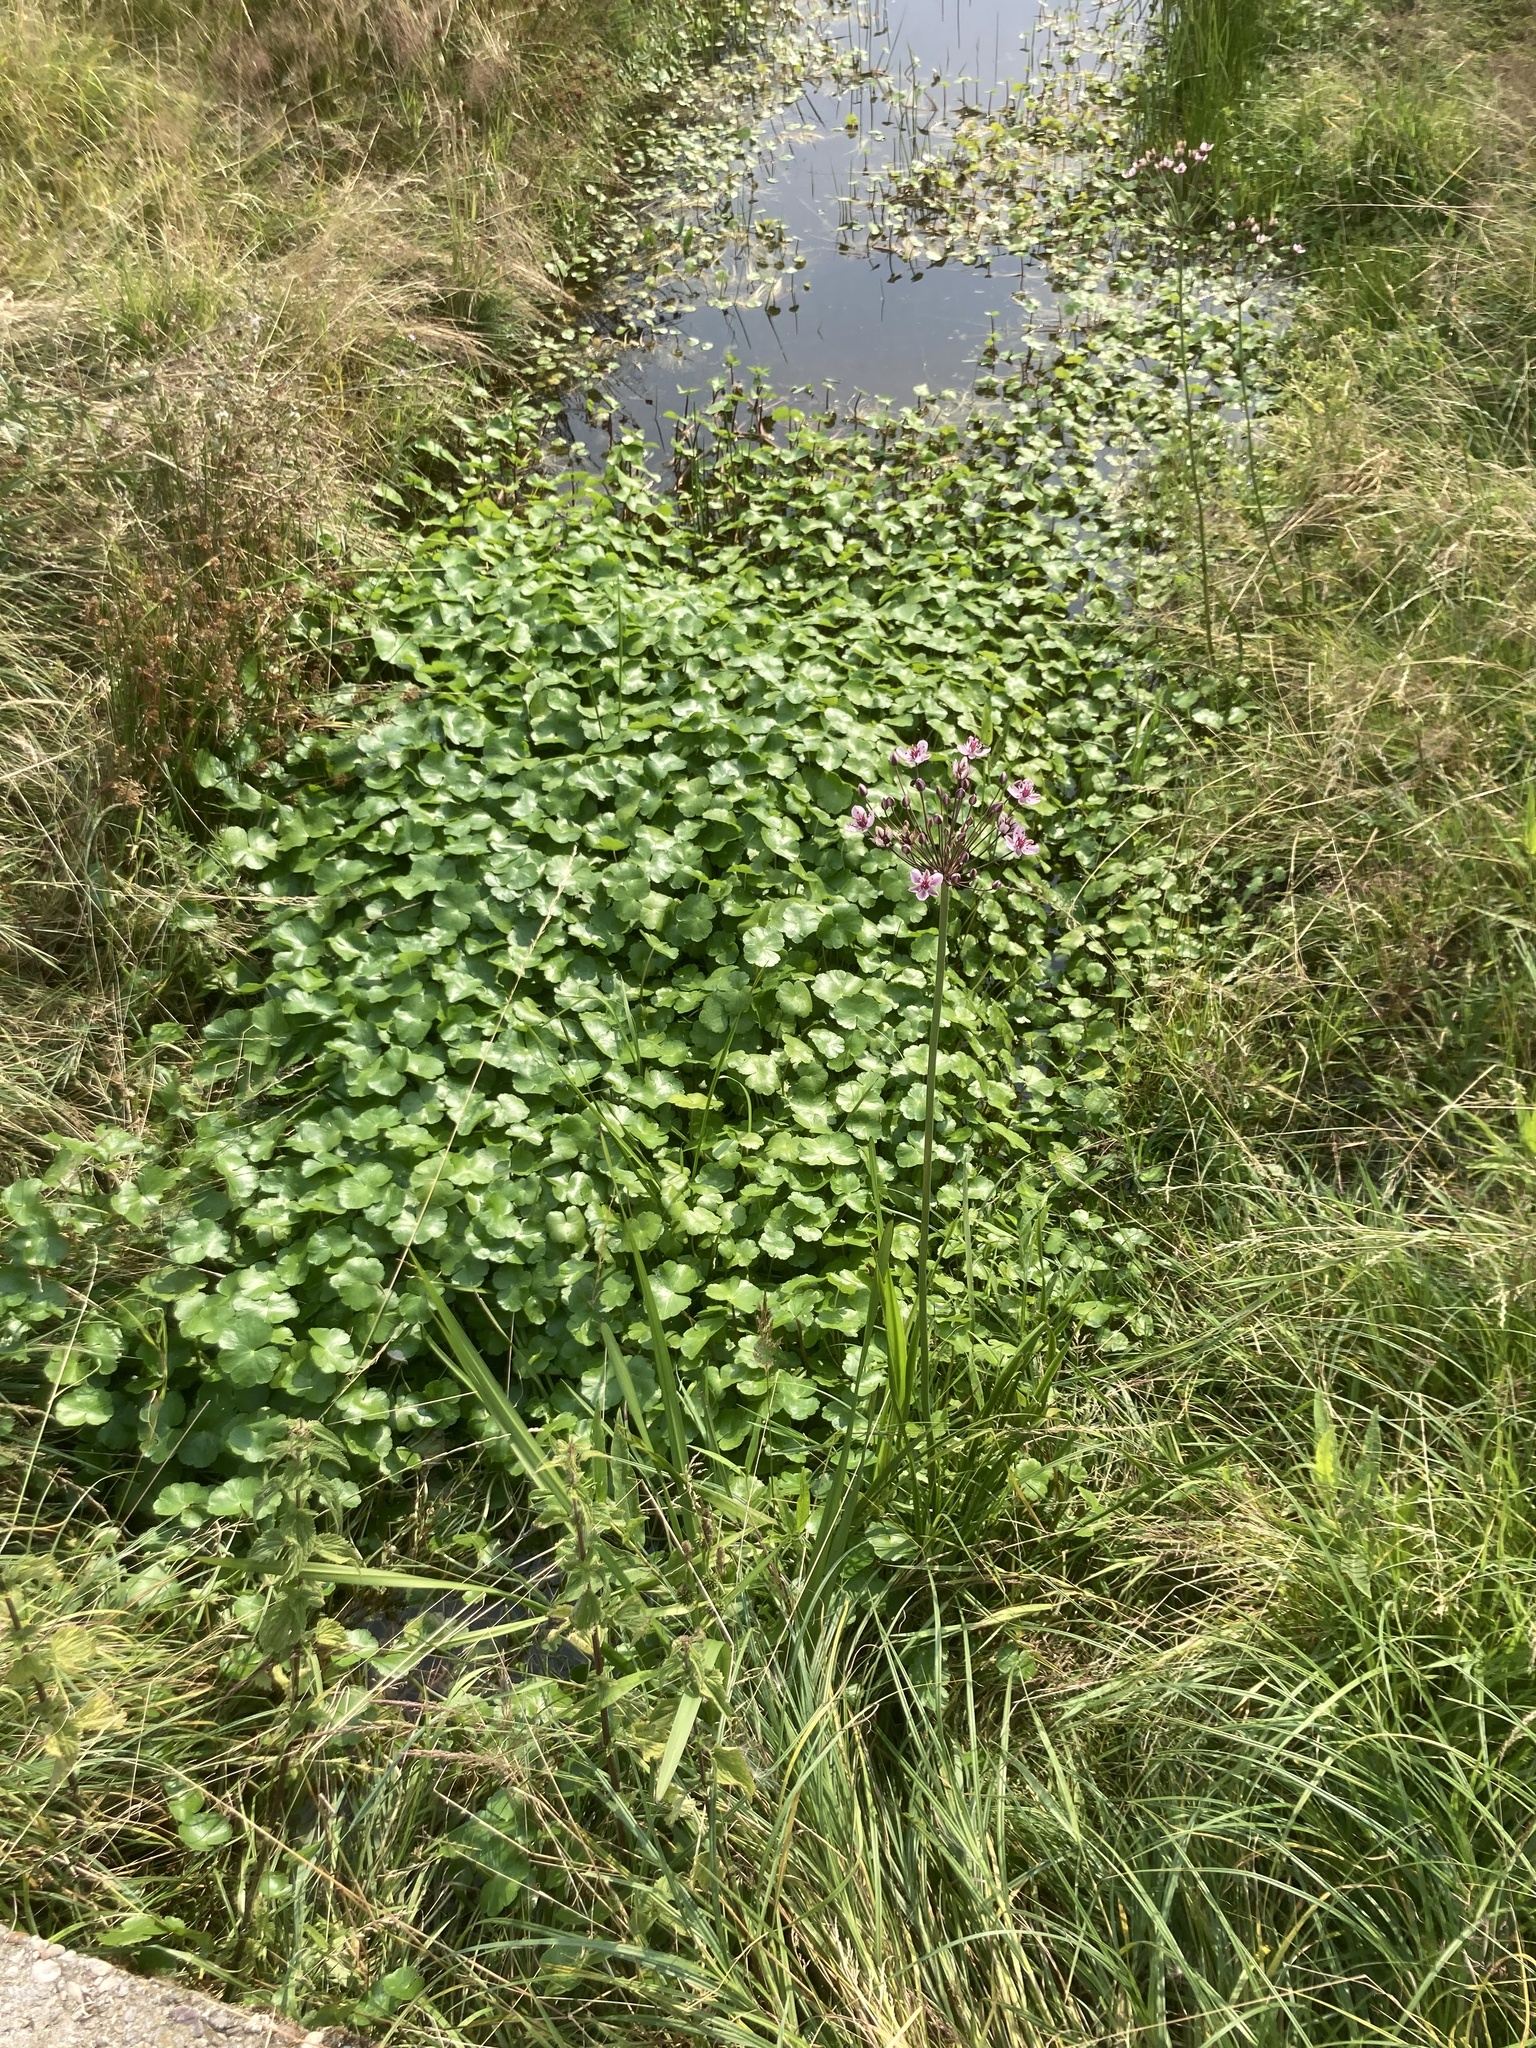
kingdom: Plantae
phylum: Tracheophyta
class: Magnoliopsida
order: Apiales
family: Araliaceae
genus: Hydrocotyle
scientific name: Hydrocotyle ranunculoides
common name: Floating pennywort
